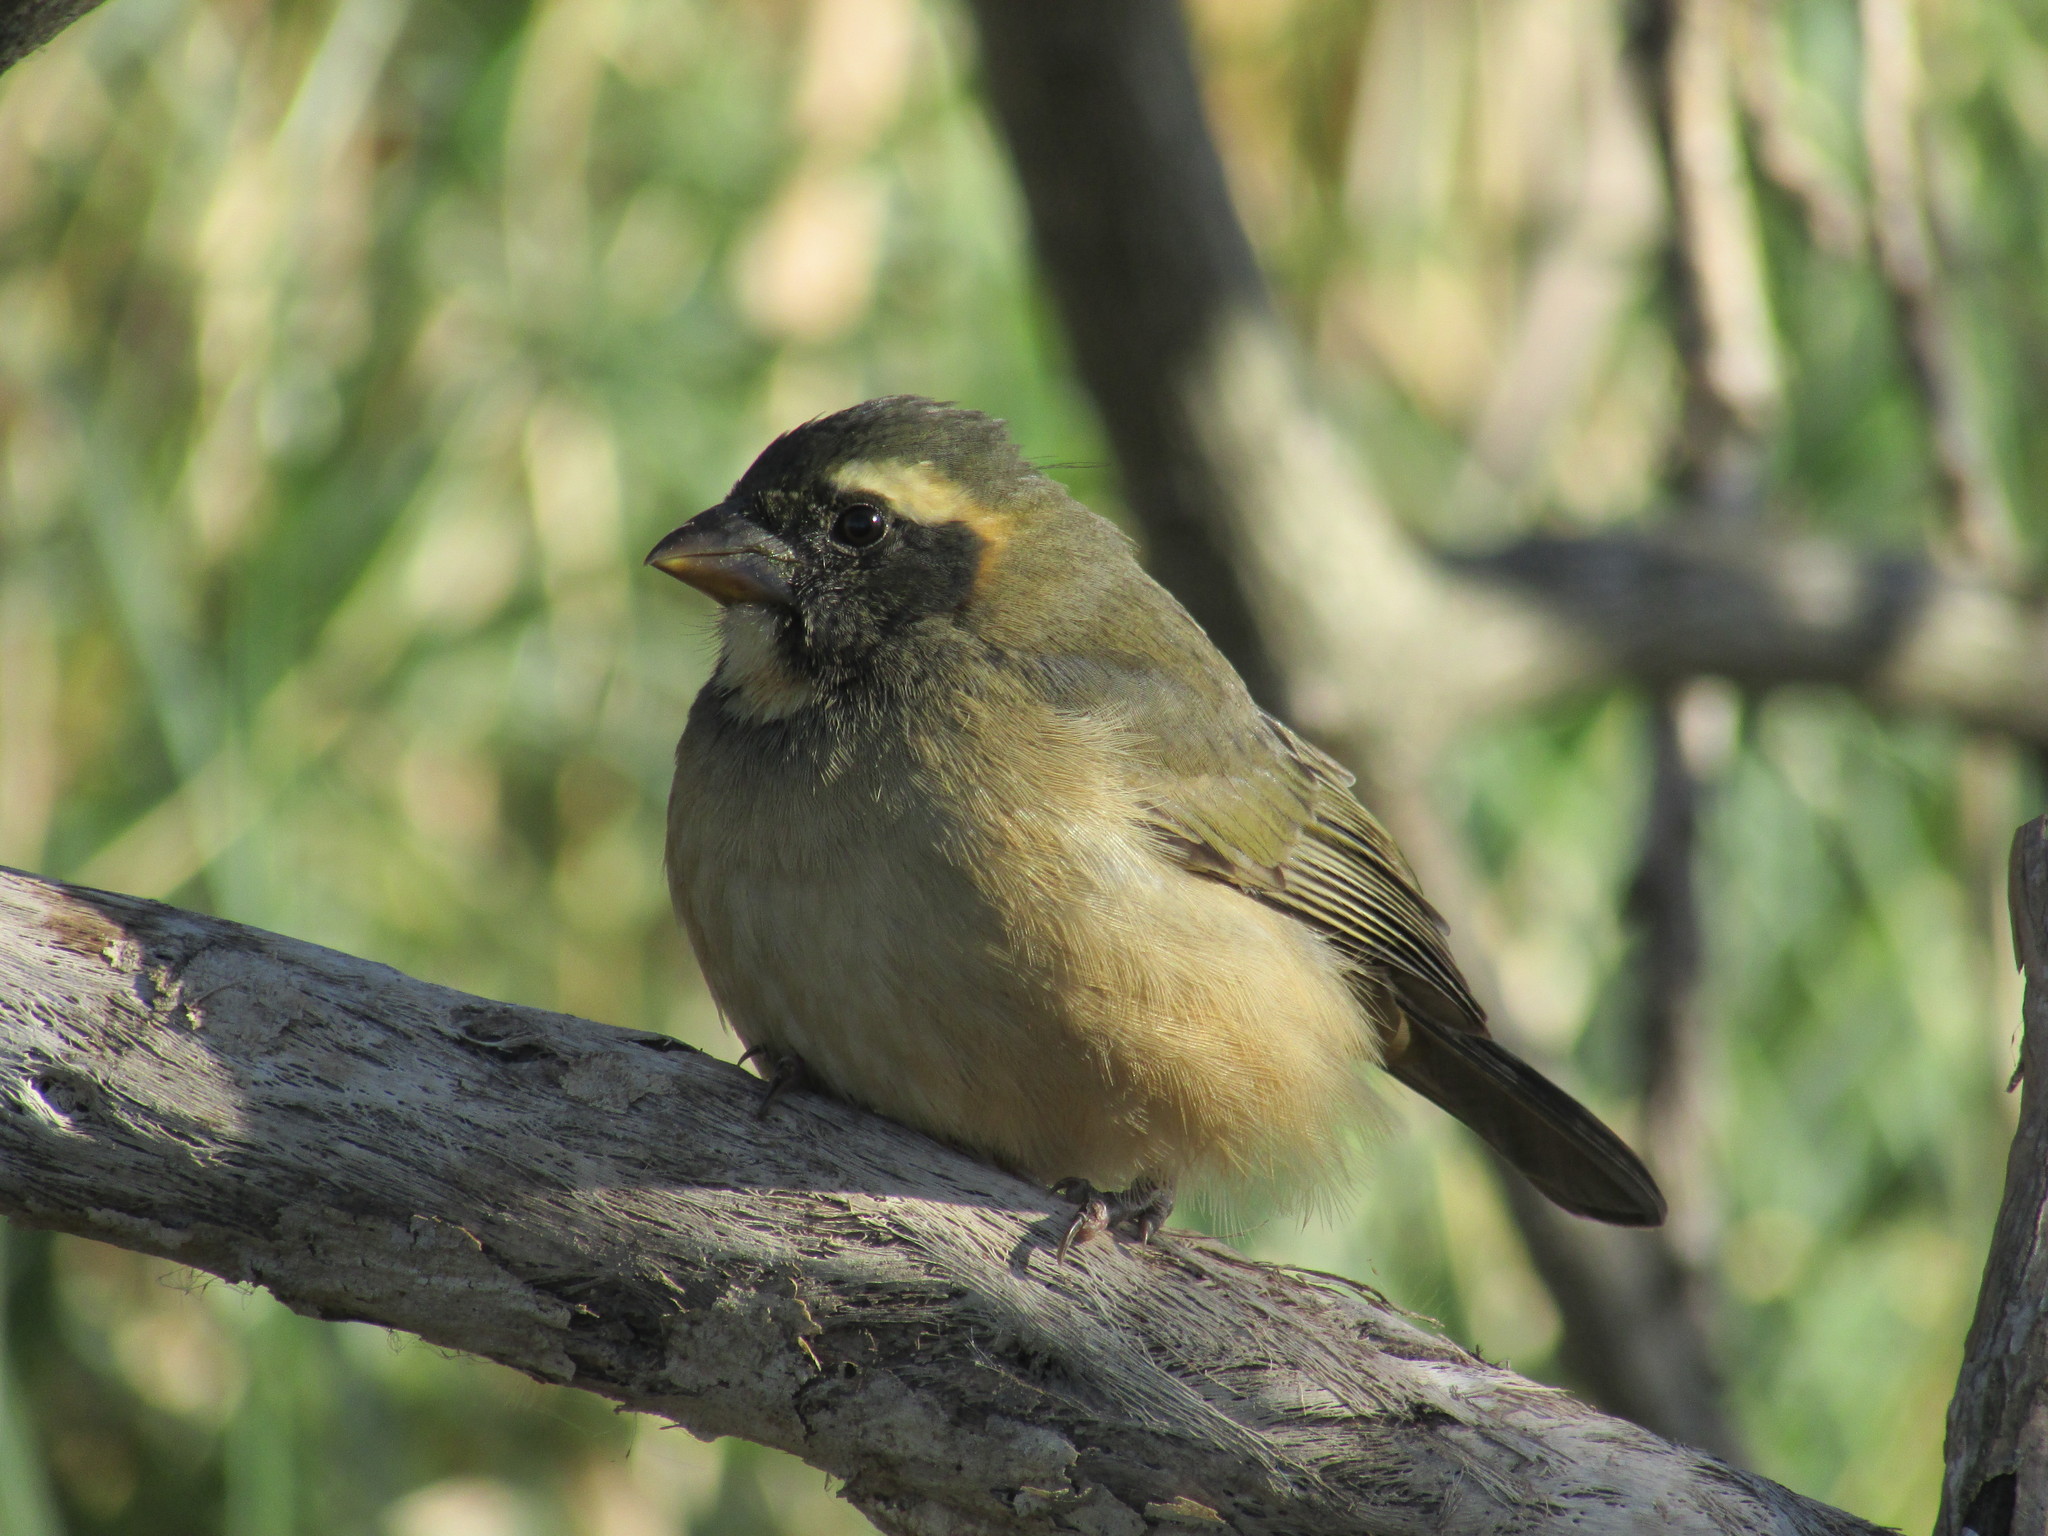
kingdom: Animalia
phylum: Chordata
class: Aves
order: Passeriformes
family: Thraupidae
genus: Saltator
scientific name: Saltator aurantiirostris
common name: Golden-billed saltator
